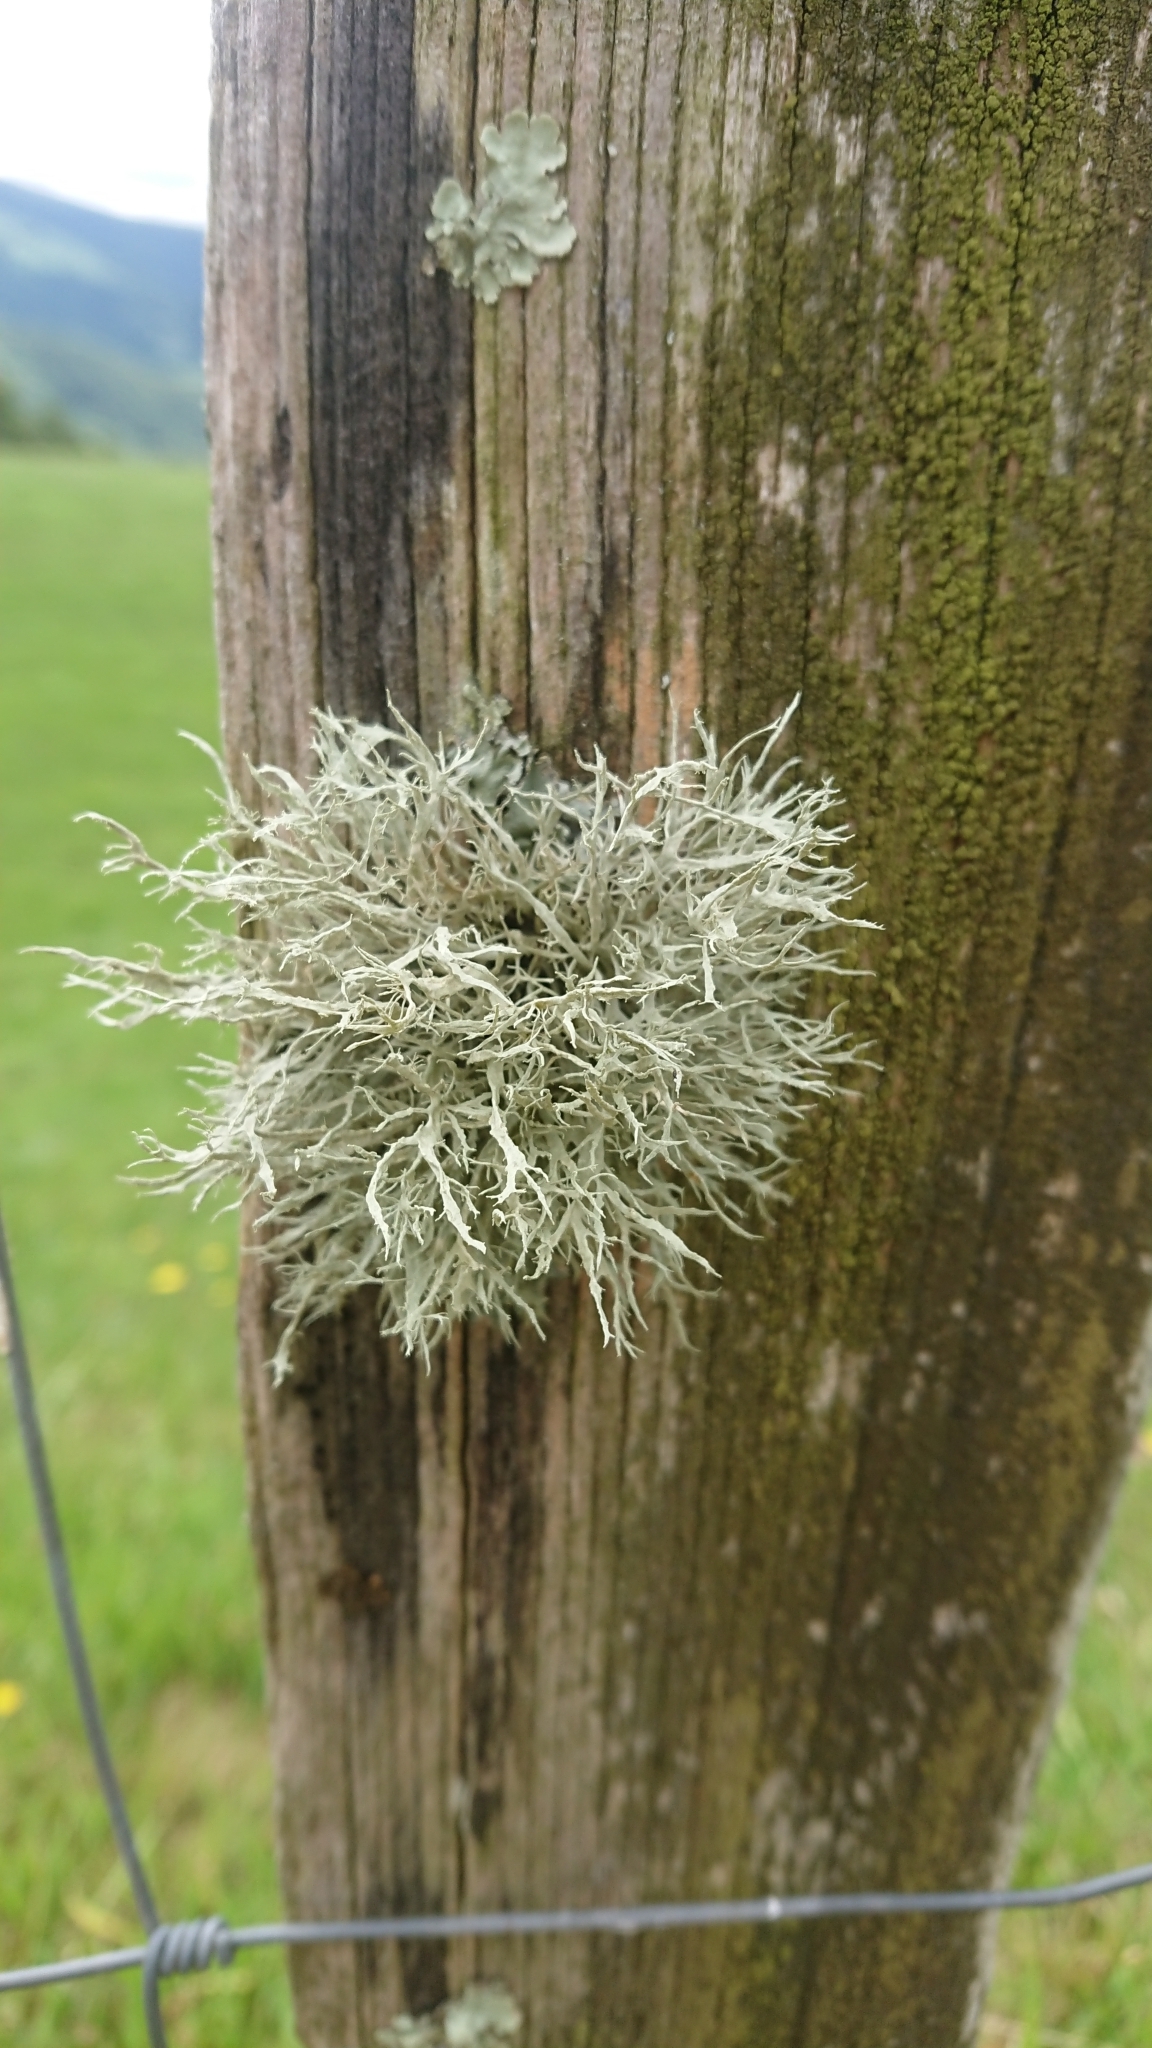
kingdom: Fungi
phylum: Ascomycota
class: Lecanoromycetes
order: Lecanorales
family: Ramalinaceae
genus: Ramalina
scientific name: Ramalina farinacea
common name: Farinose cartilage lichen
